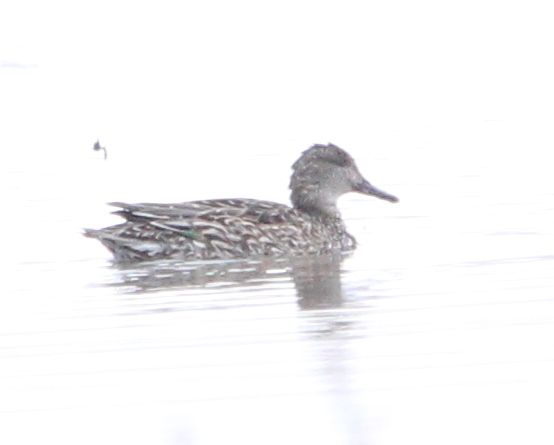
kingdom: Animalia
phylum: Chordata
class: Aves
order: Anseriformes
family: Anatidae
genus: Anas
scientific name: Anas crecca
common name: Eurasian teal
